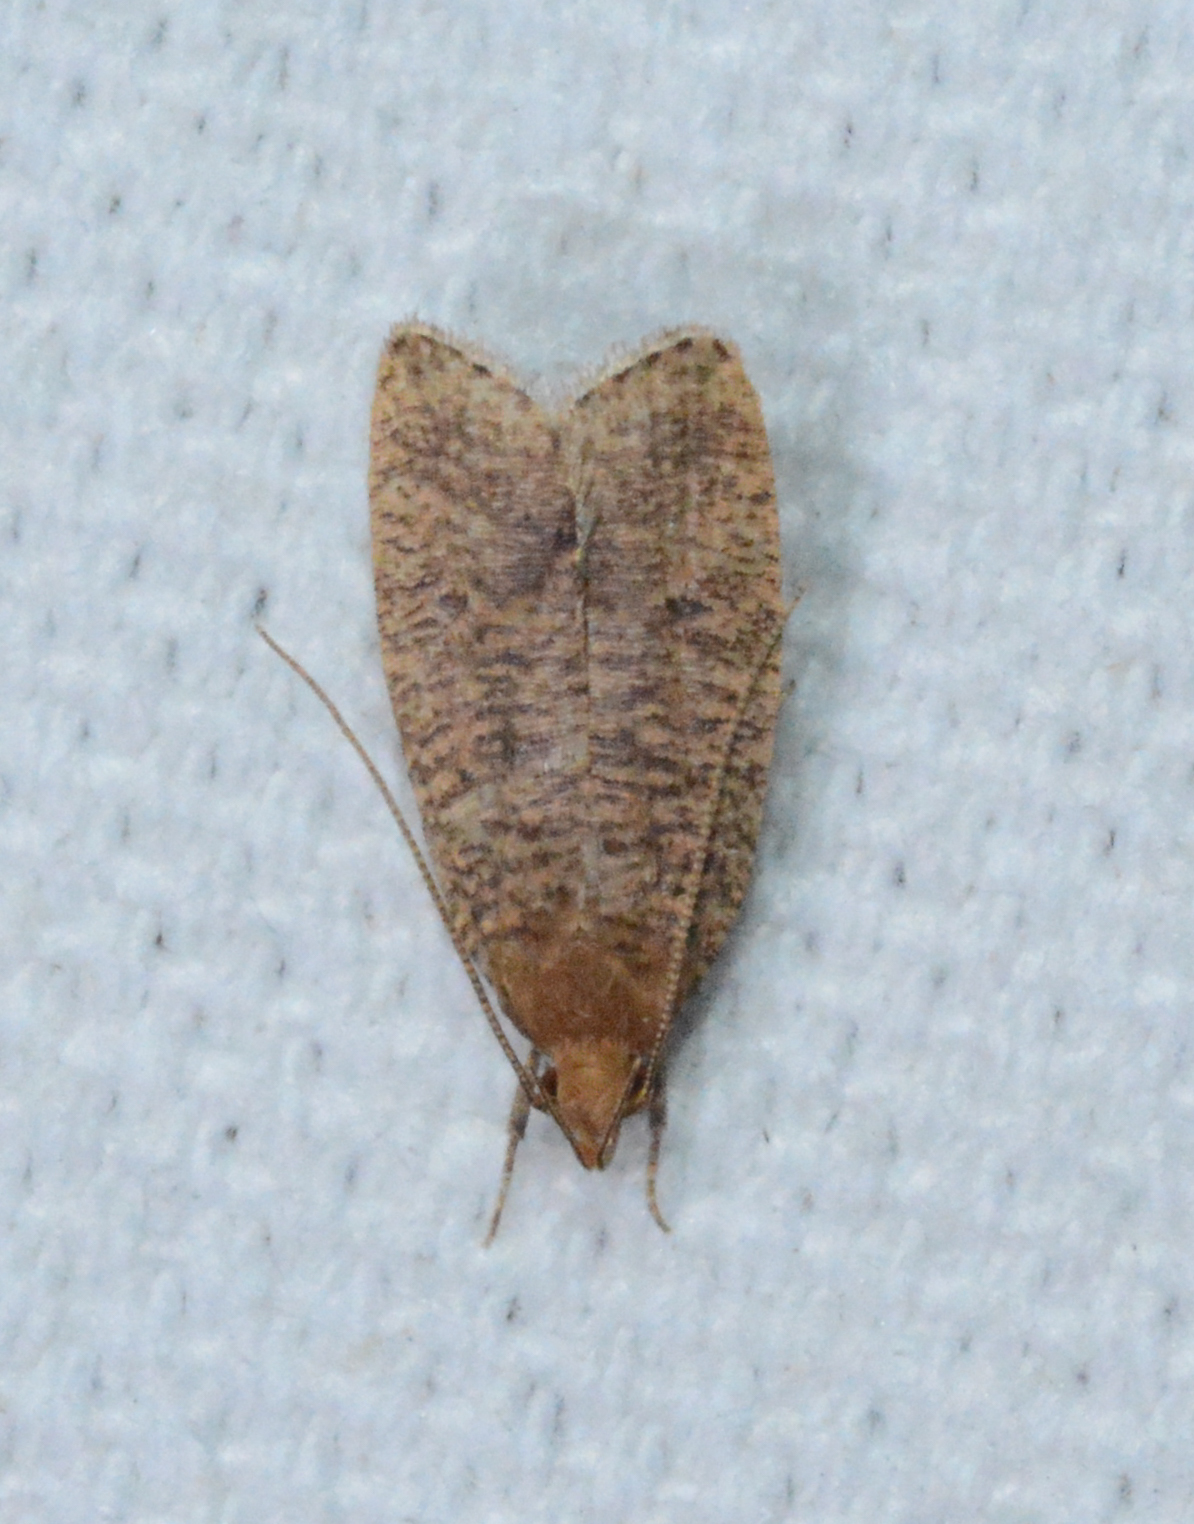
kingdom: Animalia
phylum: Arthropoda
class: Insecta
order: Lepidoptera
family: Depressariidae
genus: Psilocorsis
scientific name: Psilocorsis reflexella
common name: Dotted leaftier moth
